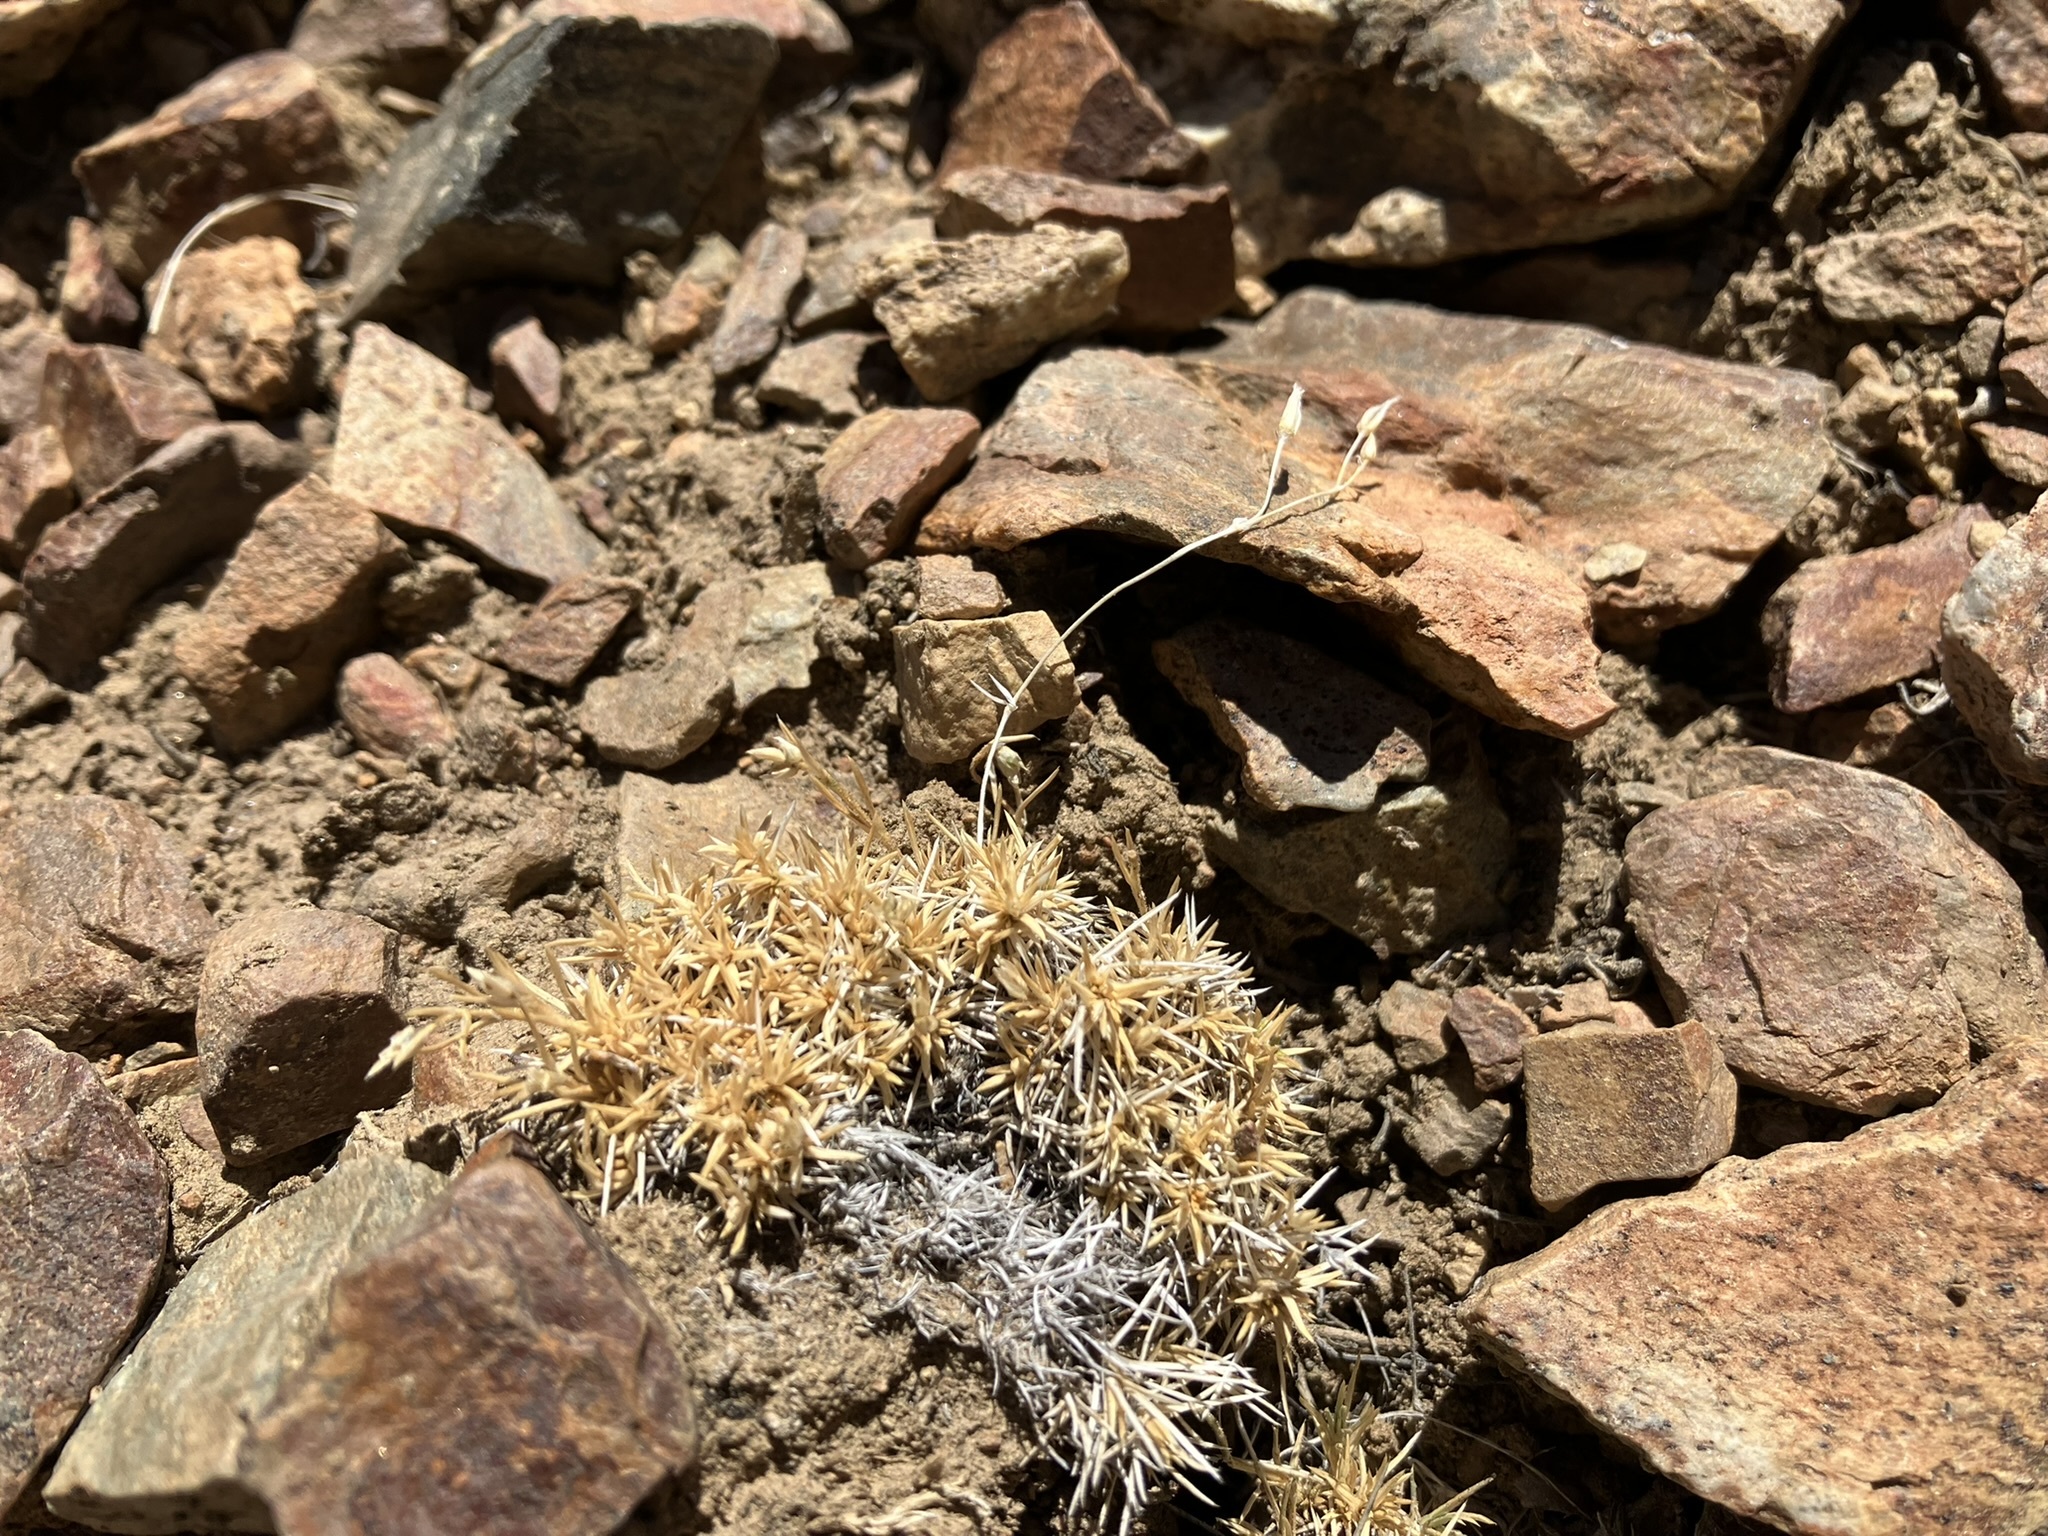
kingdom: Plantae
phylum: Tracheophyta
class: Magnoliopsida
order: Caryophyllales
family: Caryophyllaceae
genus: Eremogone
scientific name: Eremogone kingii
